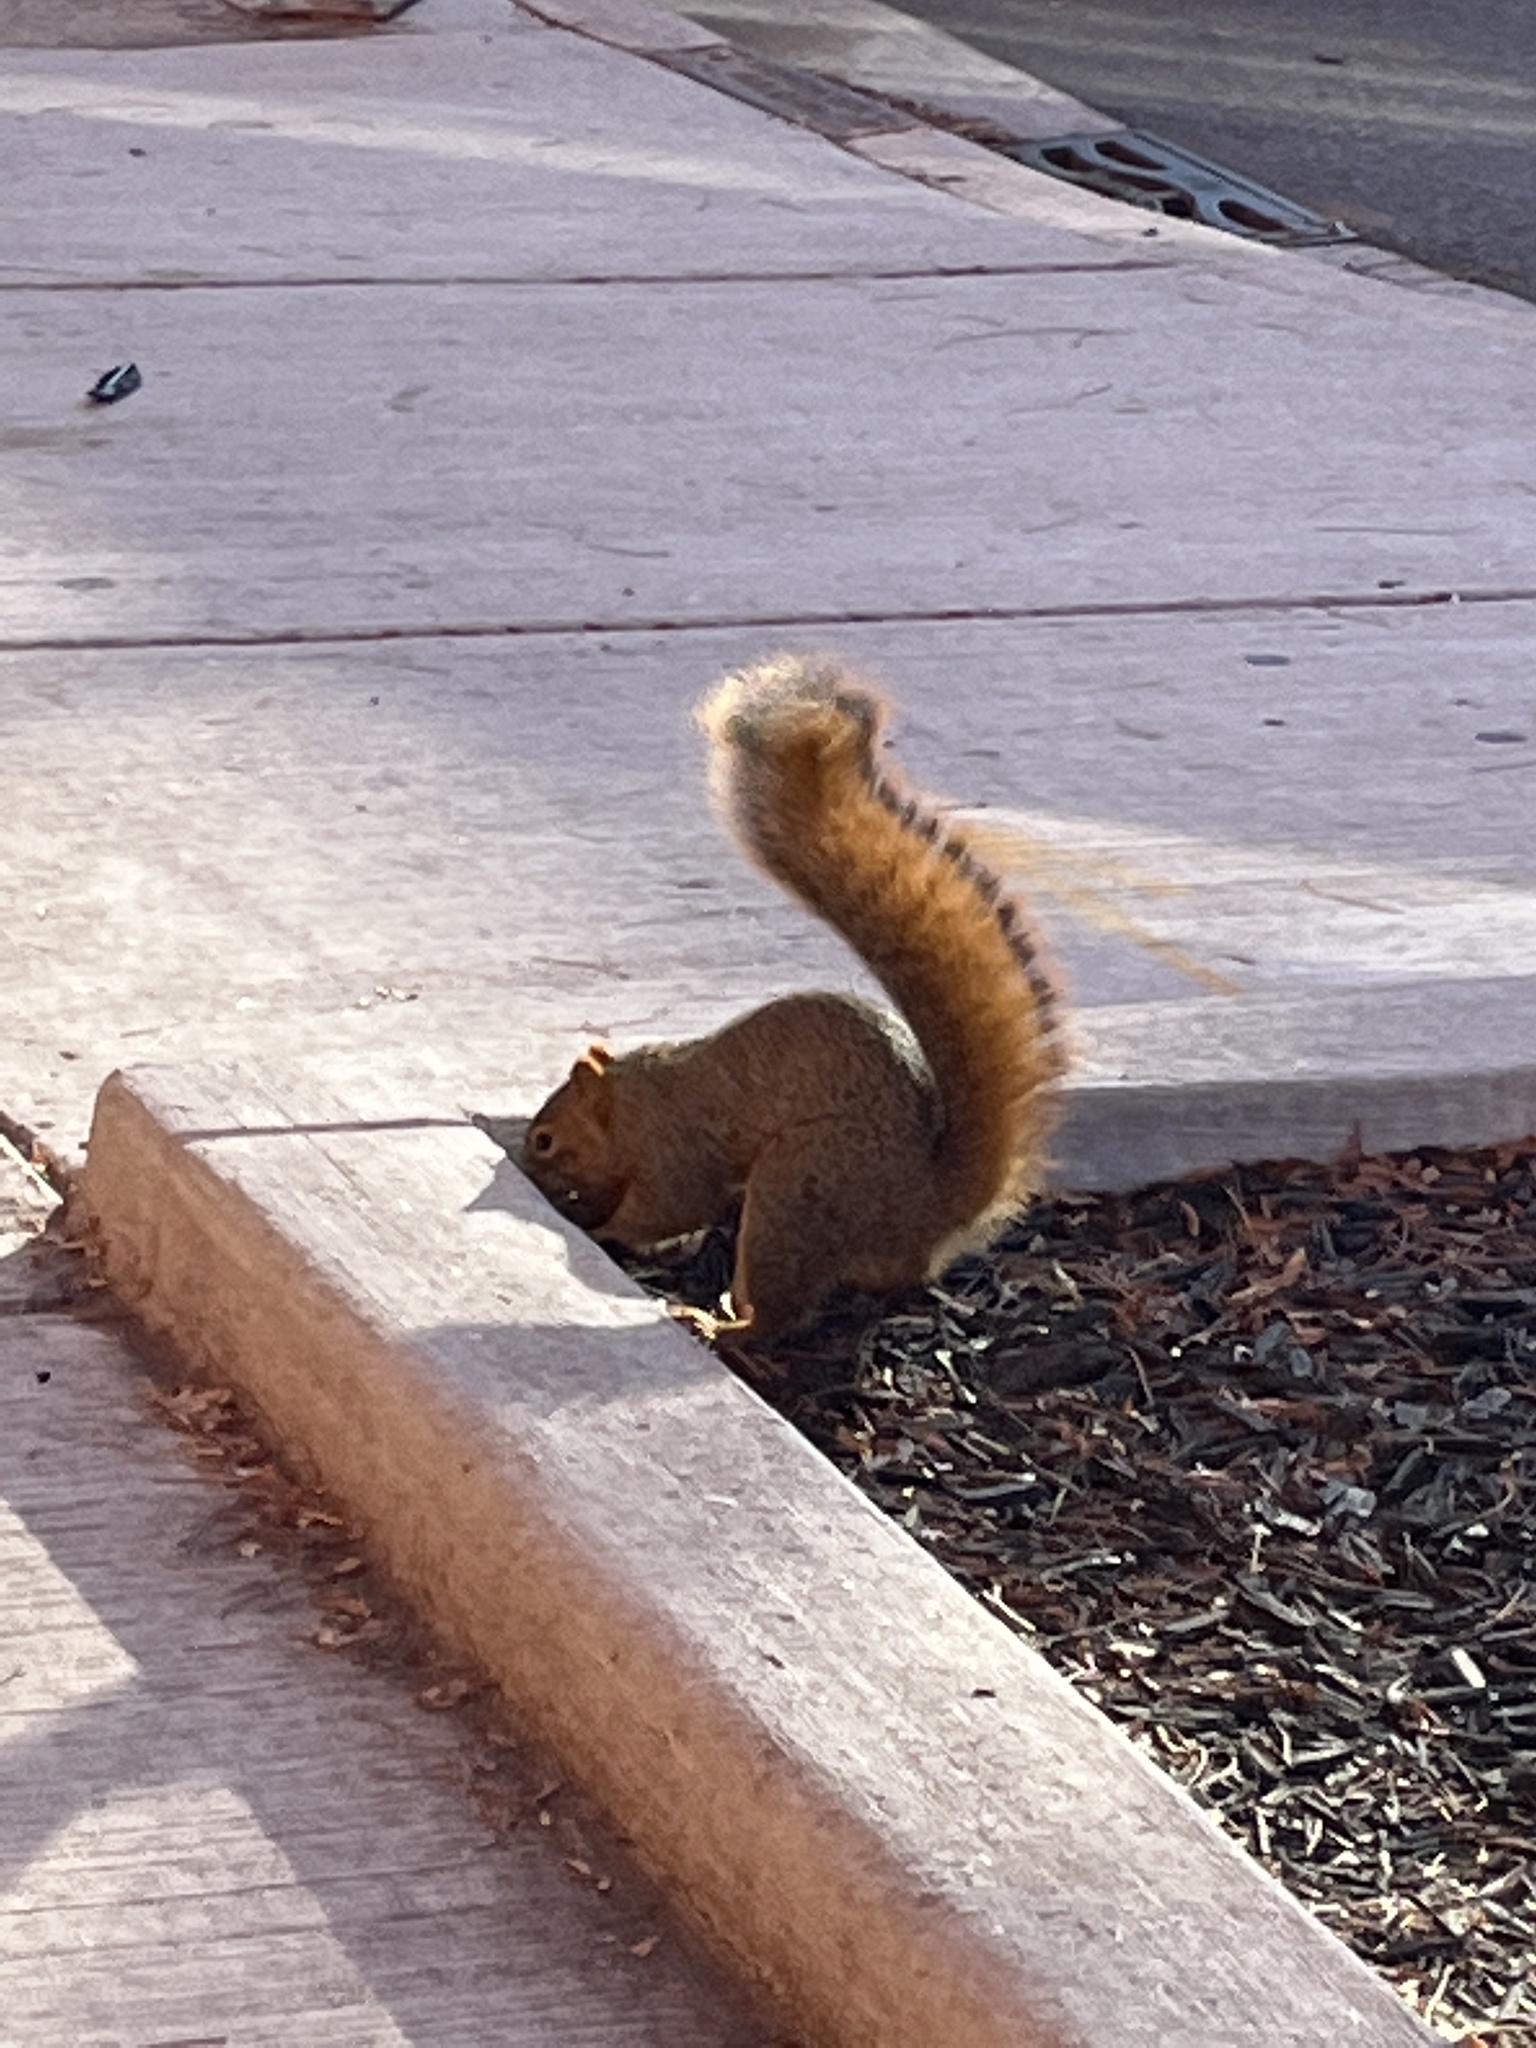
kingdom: Animalia
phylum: Chordata
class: Mammalia
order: Rodentia
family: Sciuridae
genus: Sciurus
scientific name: Sciurus niger
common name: Fox squirrel
